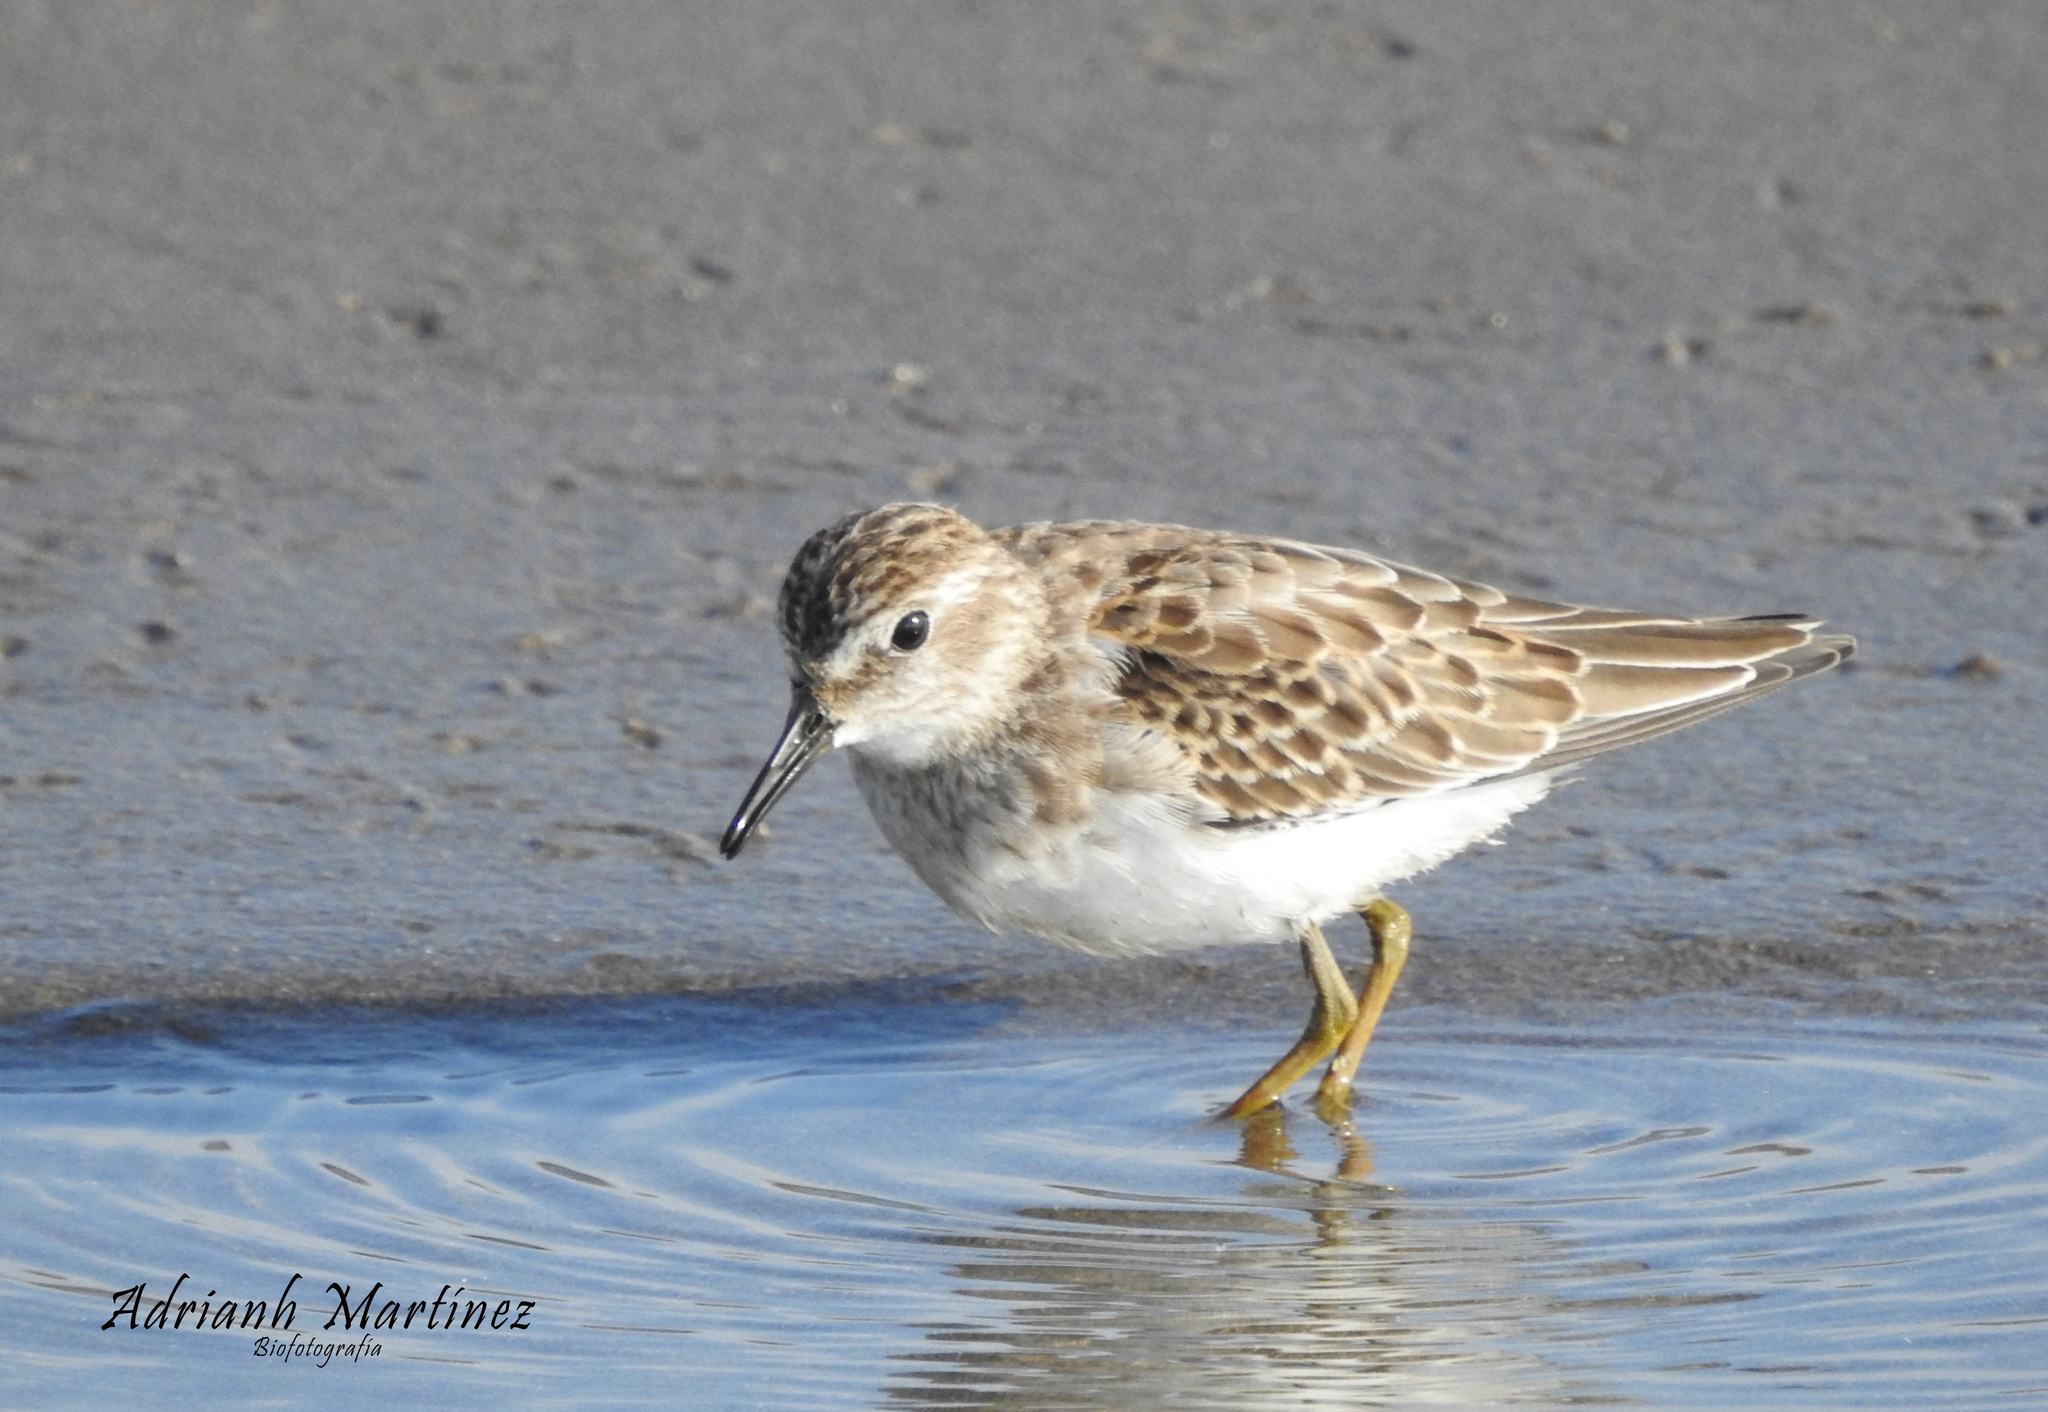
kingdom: Animalia
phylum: Chordata
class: Aves
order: Charadriiformes
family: Scolopacidae
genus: Calidris
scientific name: Calidris minutilla
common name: Least sandpiper
